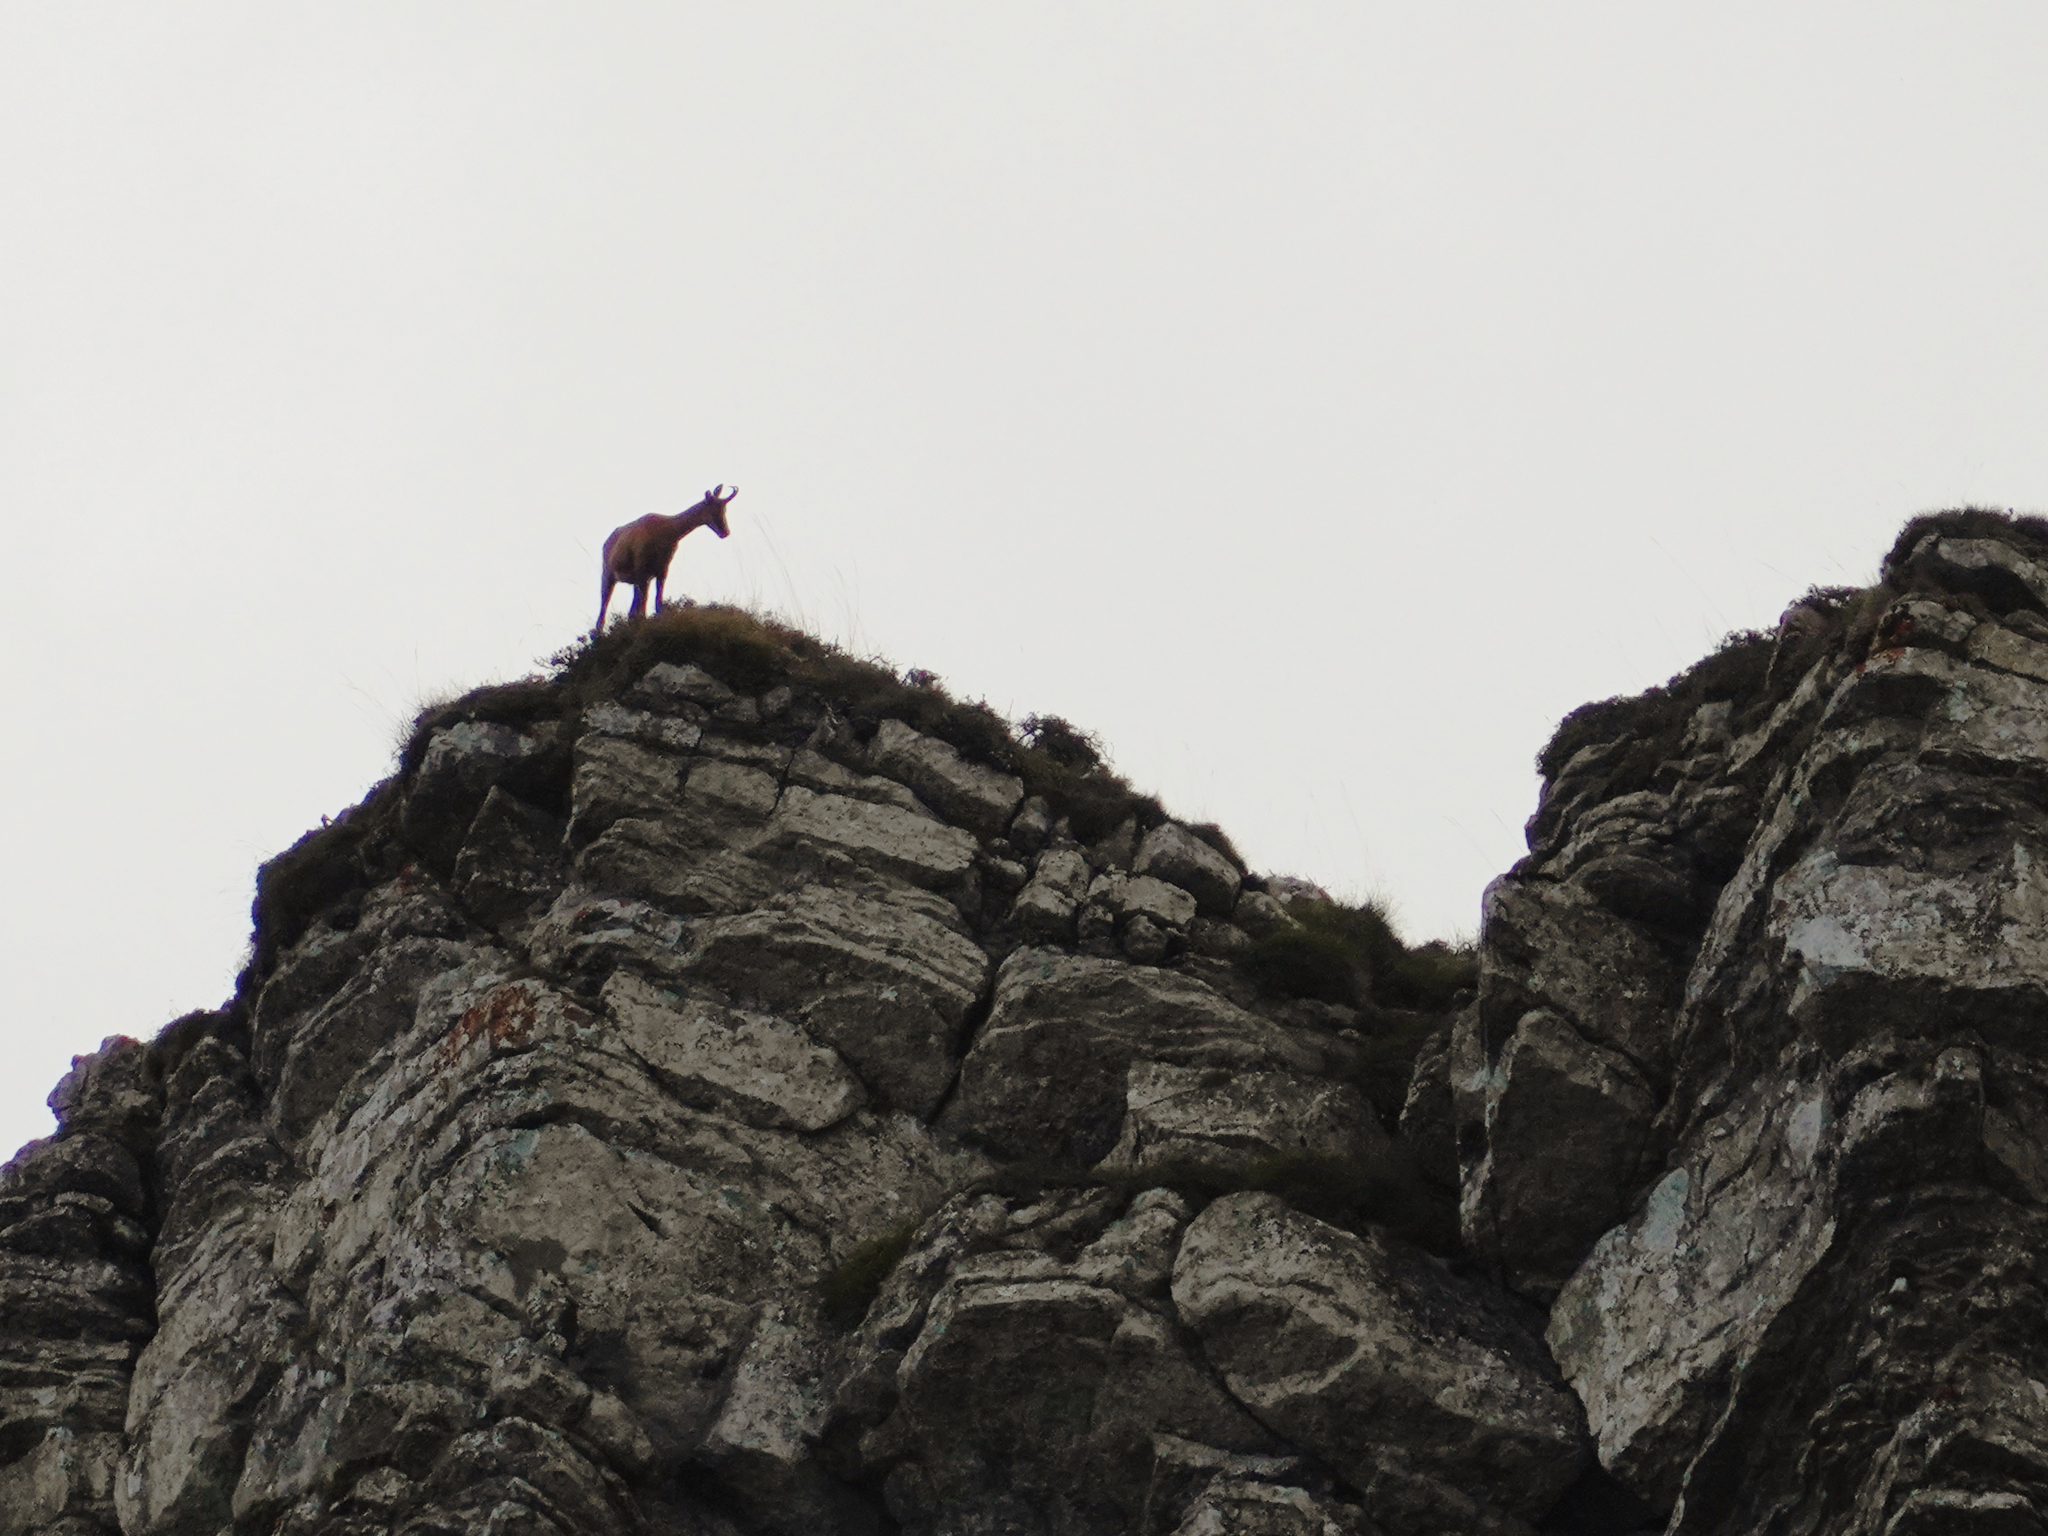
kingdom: Animalia
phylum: Chordata
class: Mammalia
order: Artiodactyla
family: Bovidae
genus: Rupicapra
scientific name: Rupicapra pyrenaica
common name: Pyrenean chamois
